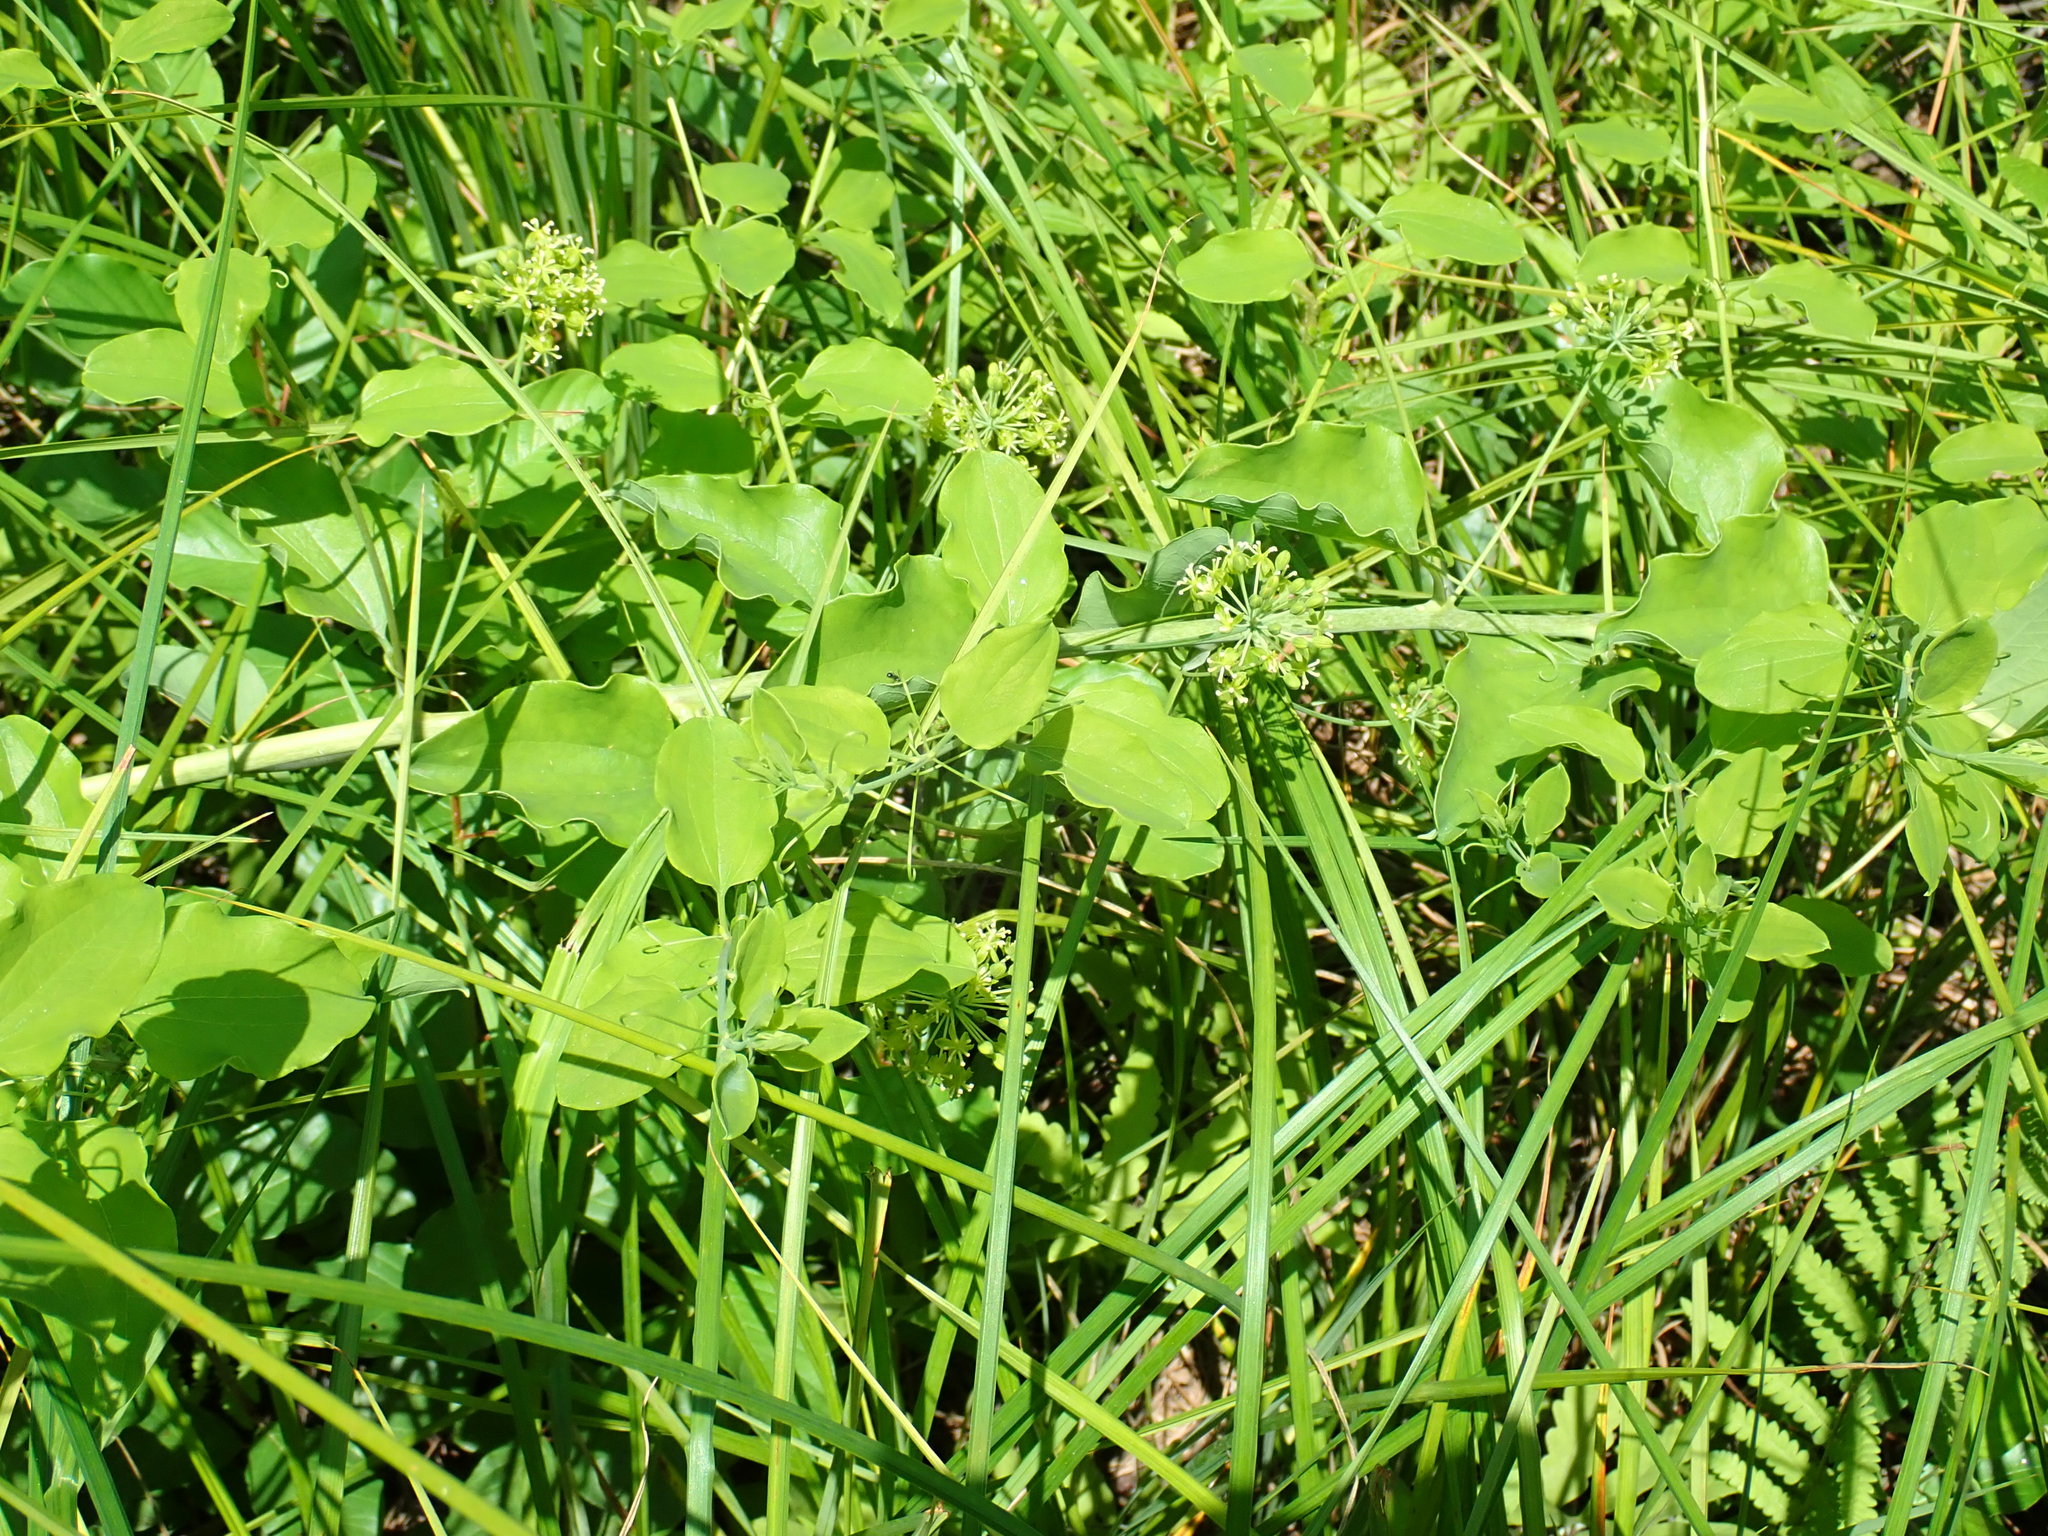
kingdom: Plantae
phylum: Tracheophyta
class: Liliopsida
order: Liliales
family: Smilacaceae
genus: Smilax
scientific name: Smilax herbacea
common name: Jacob's-ladder
